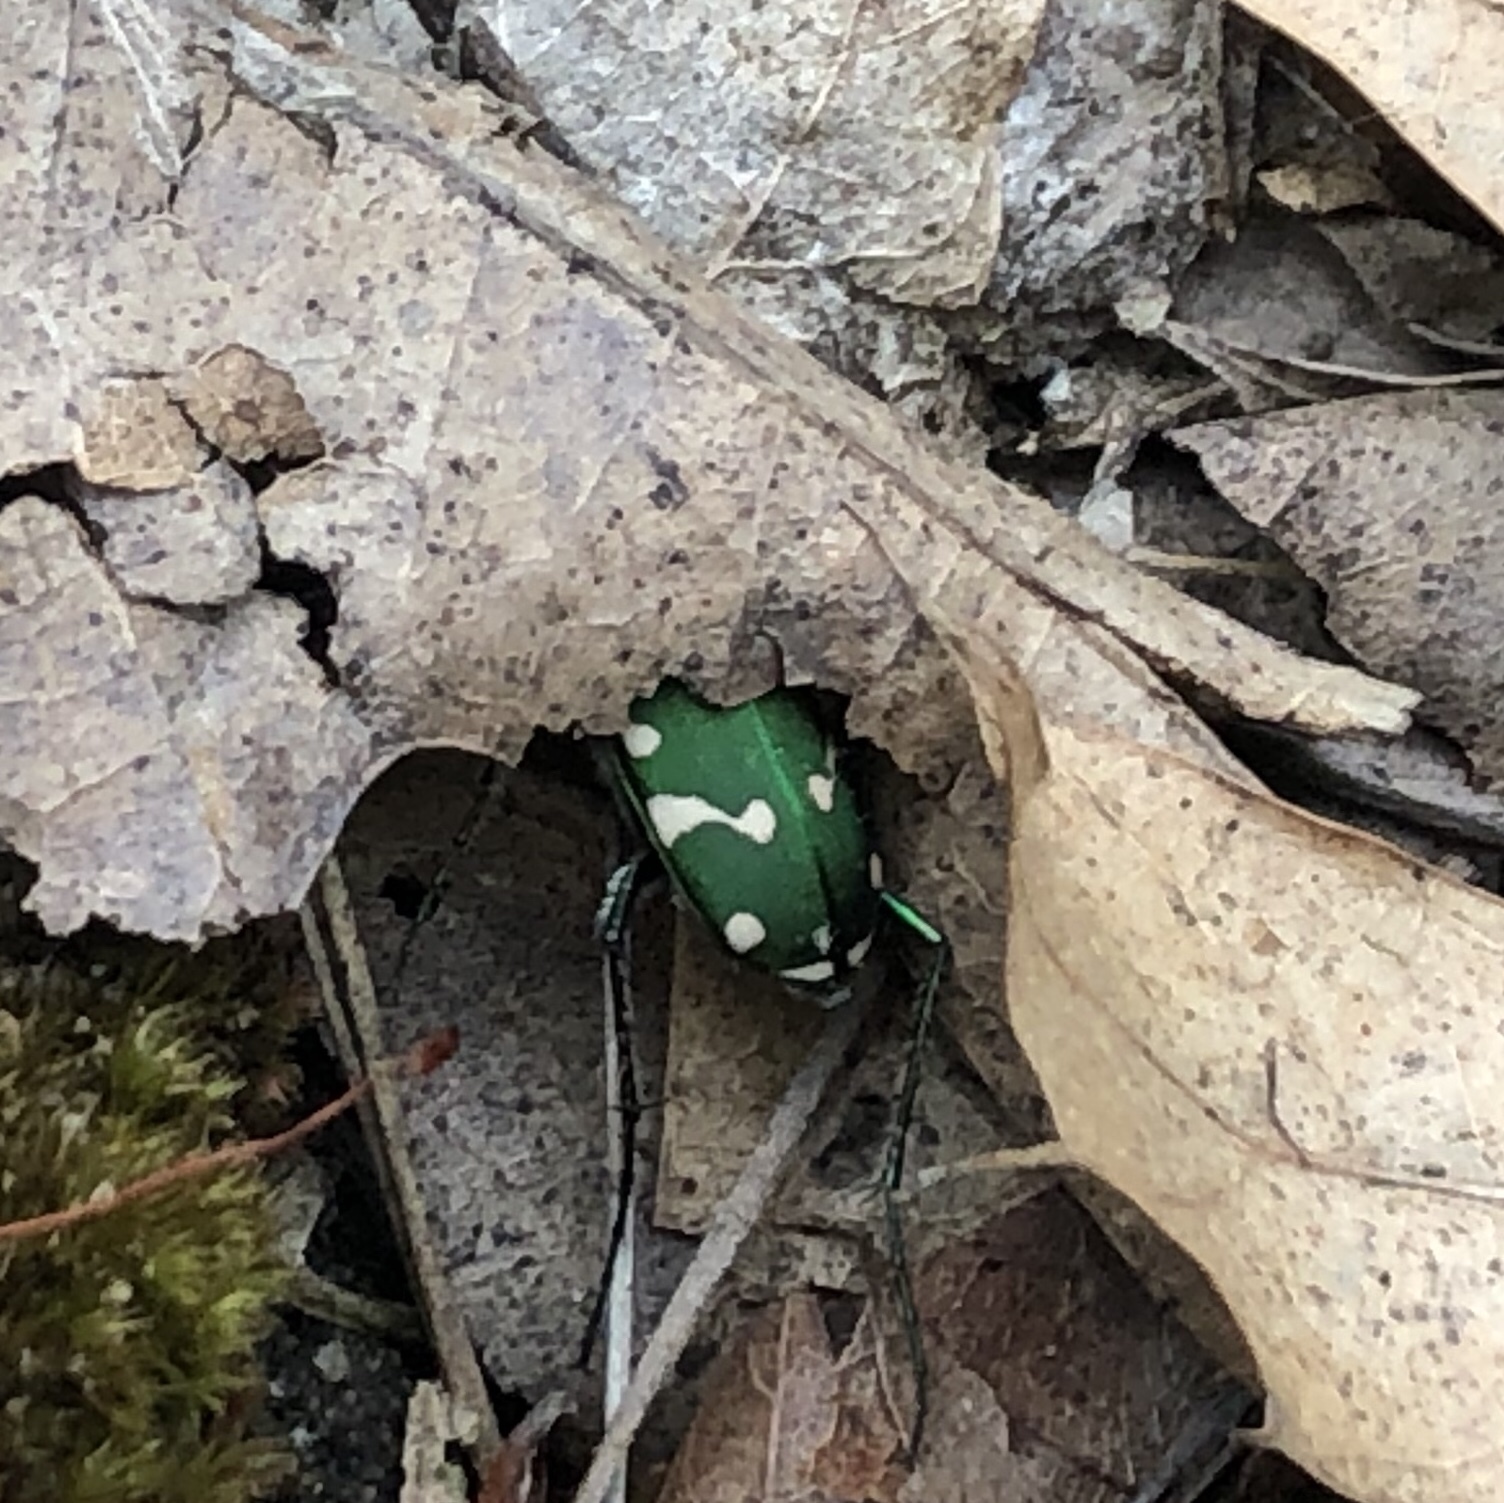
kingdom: Animalia
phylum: Arthropoda
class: Insecta
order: Coleoptera
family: Carabidae
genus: Cicindela
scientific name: Cicindela patruela
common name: Northern barrens tiger beetle
